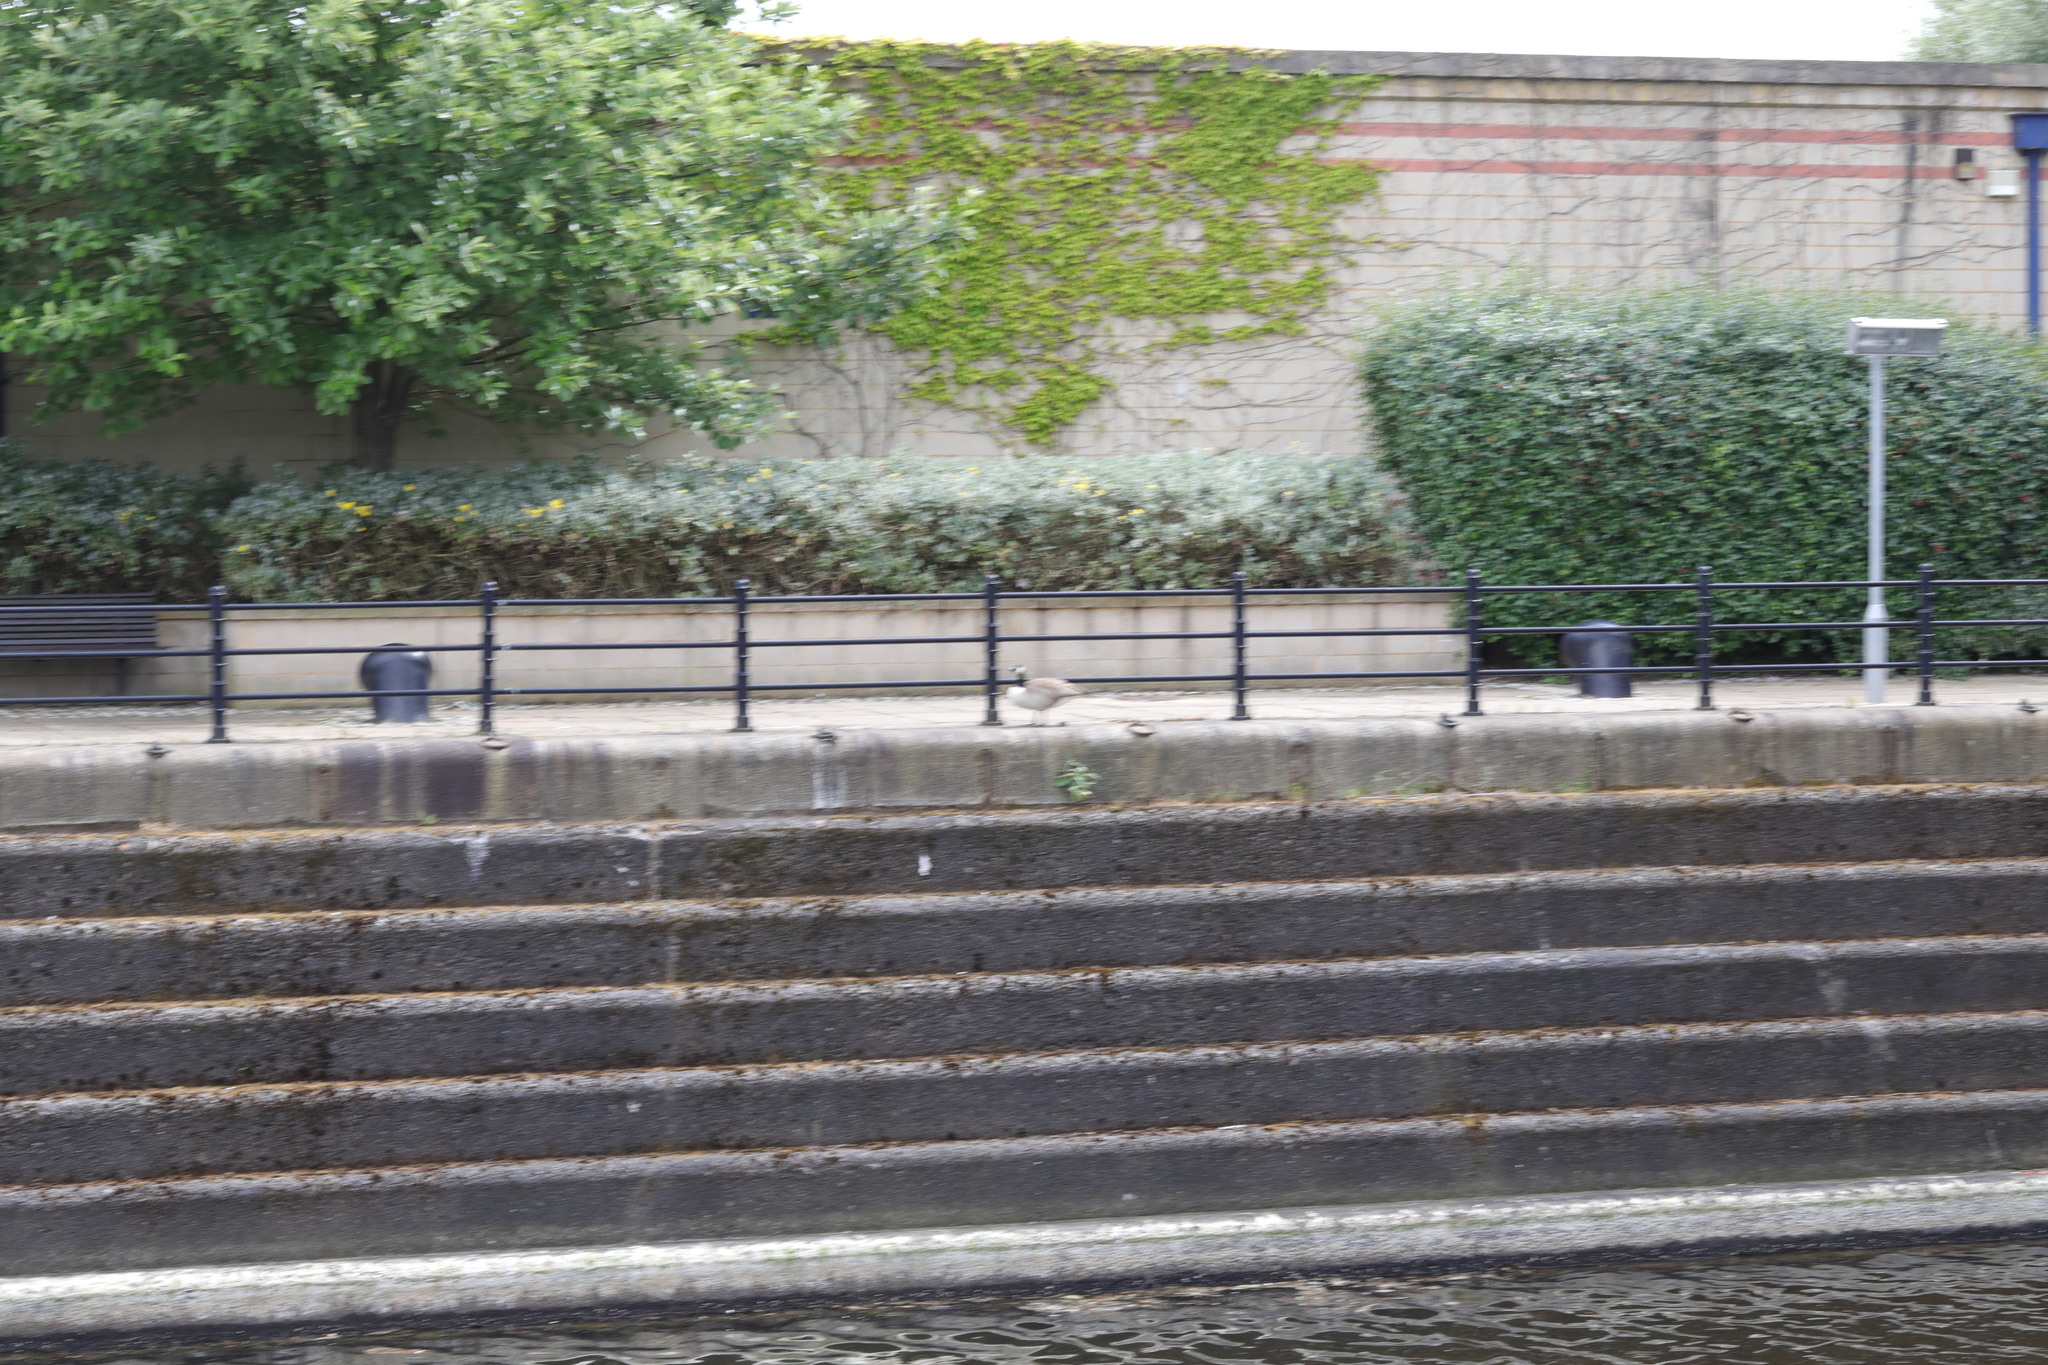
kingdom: Animalia
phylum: Chordata
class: Aves
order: Anseriformes
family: Anatidae
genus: Branta
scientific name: Branta canadensis
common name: Canada goose
